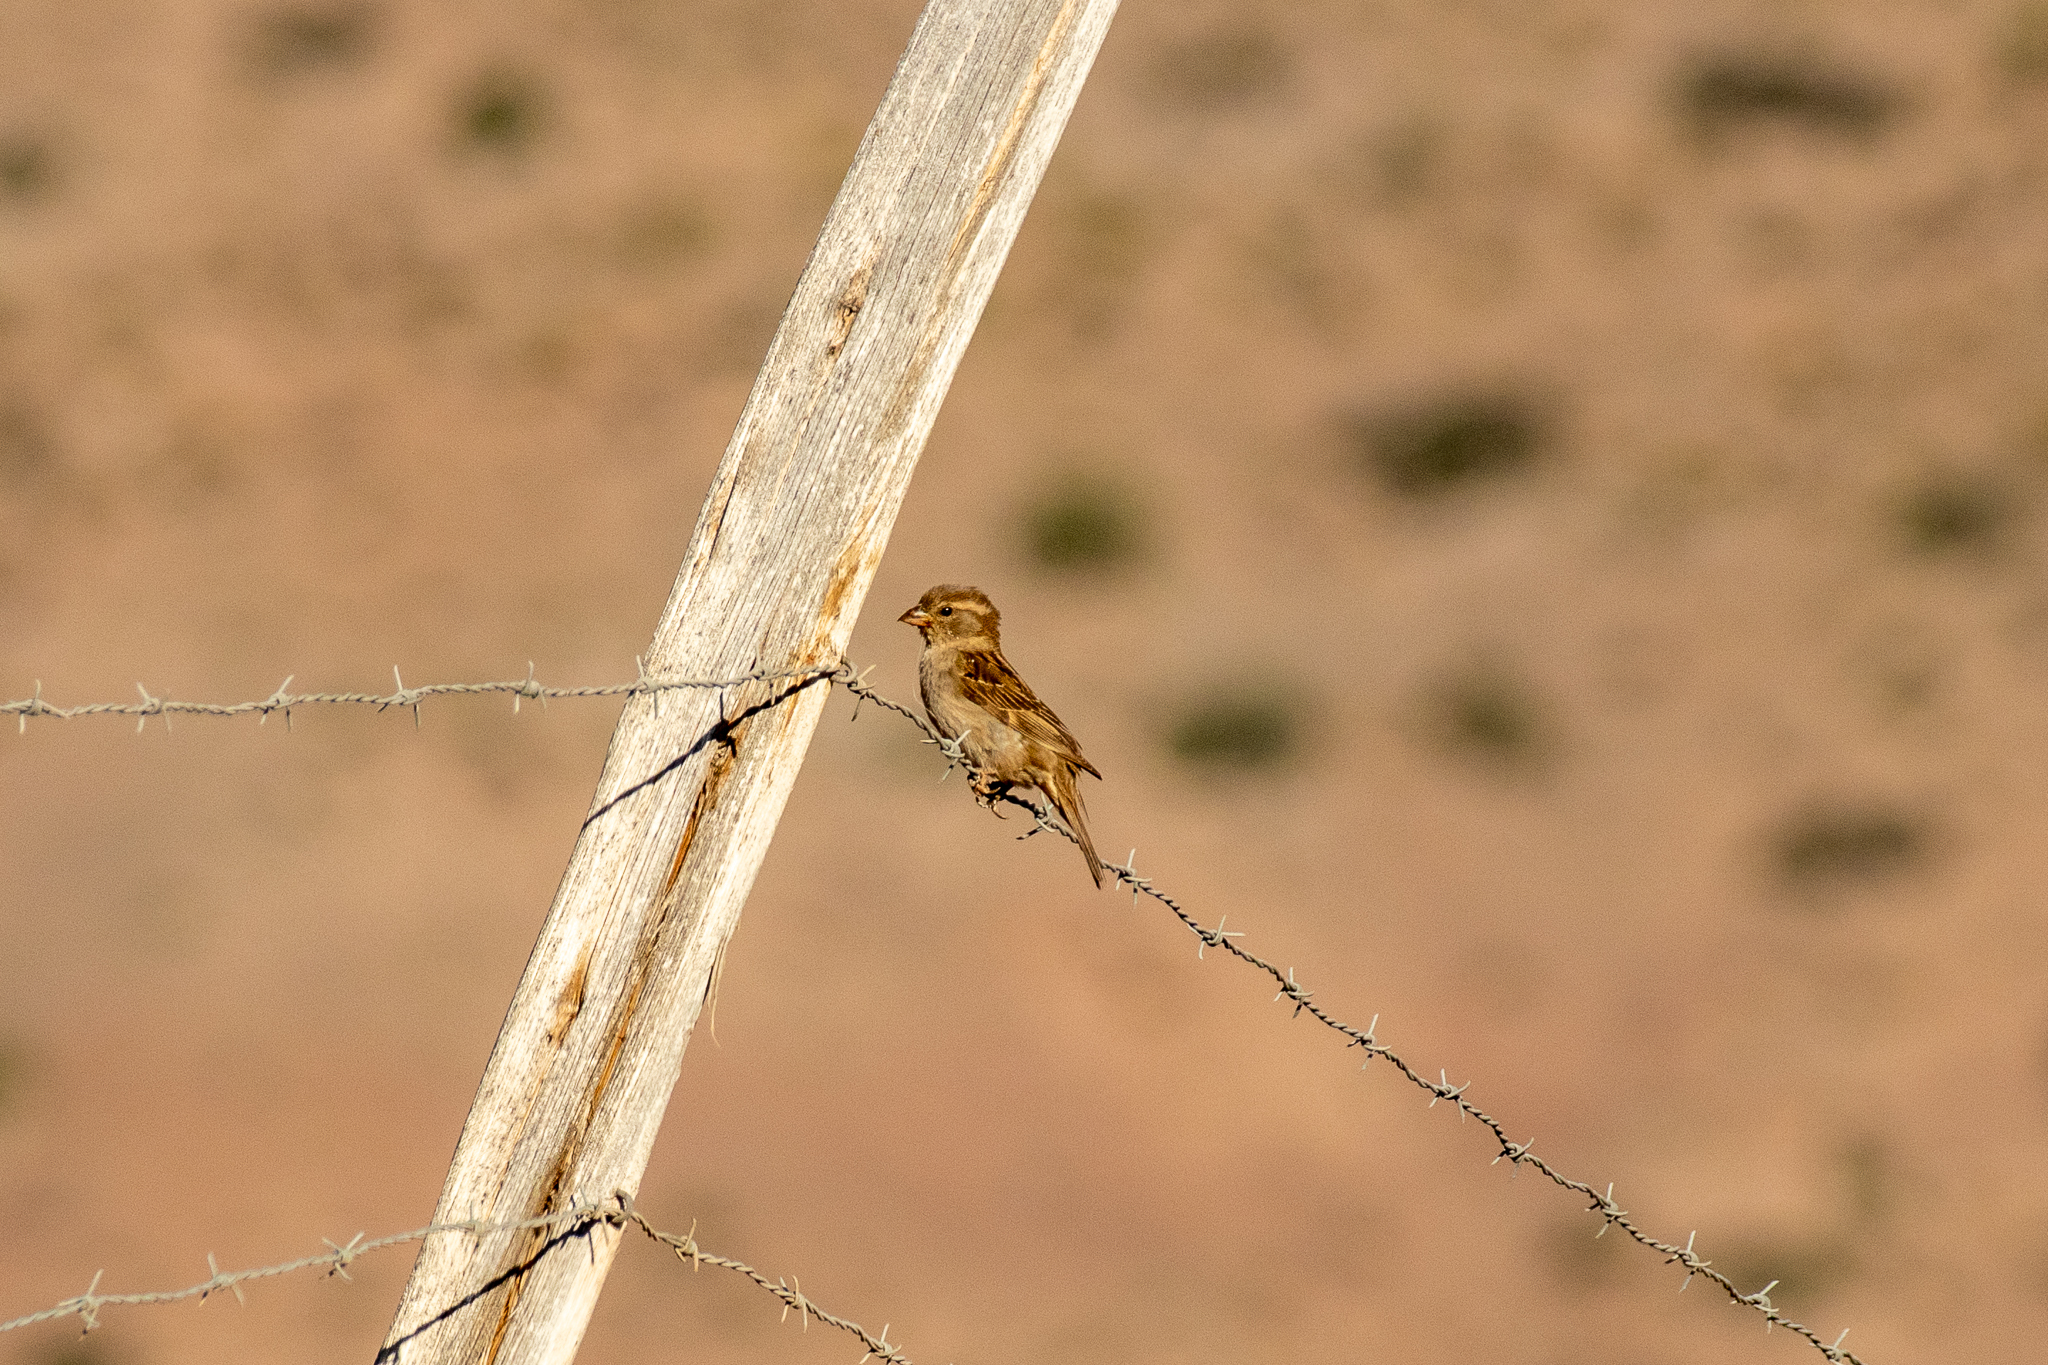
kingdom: Animalia
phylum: Chordata
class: Aves
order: Passeriformes
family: Passeridae
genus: Passer
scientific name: Passer domesticus
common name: House sparrow
